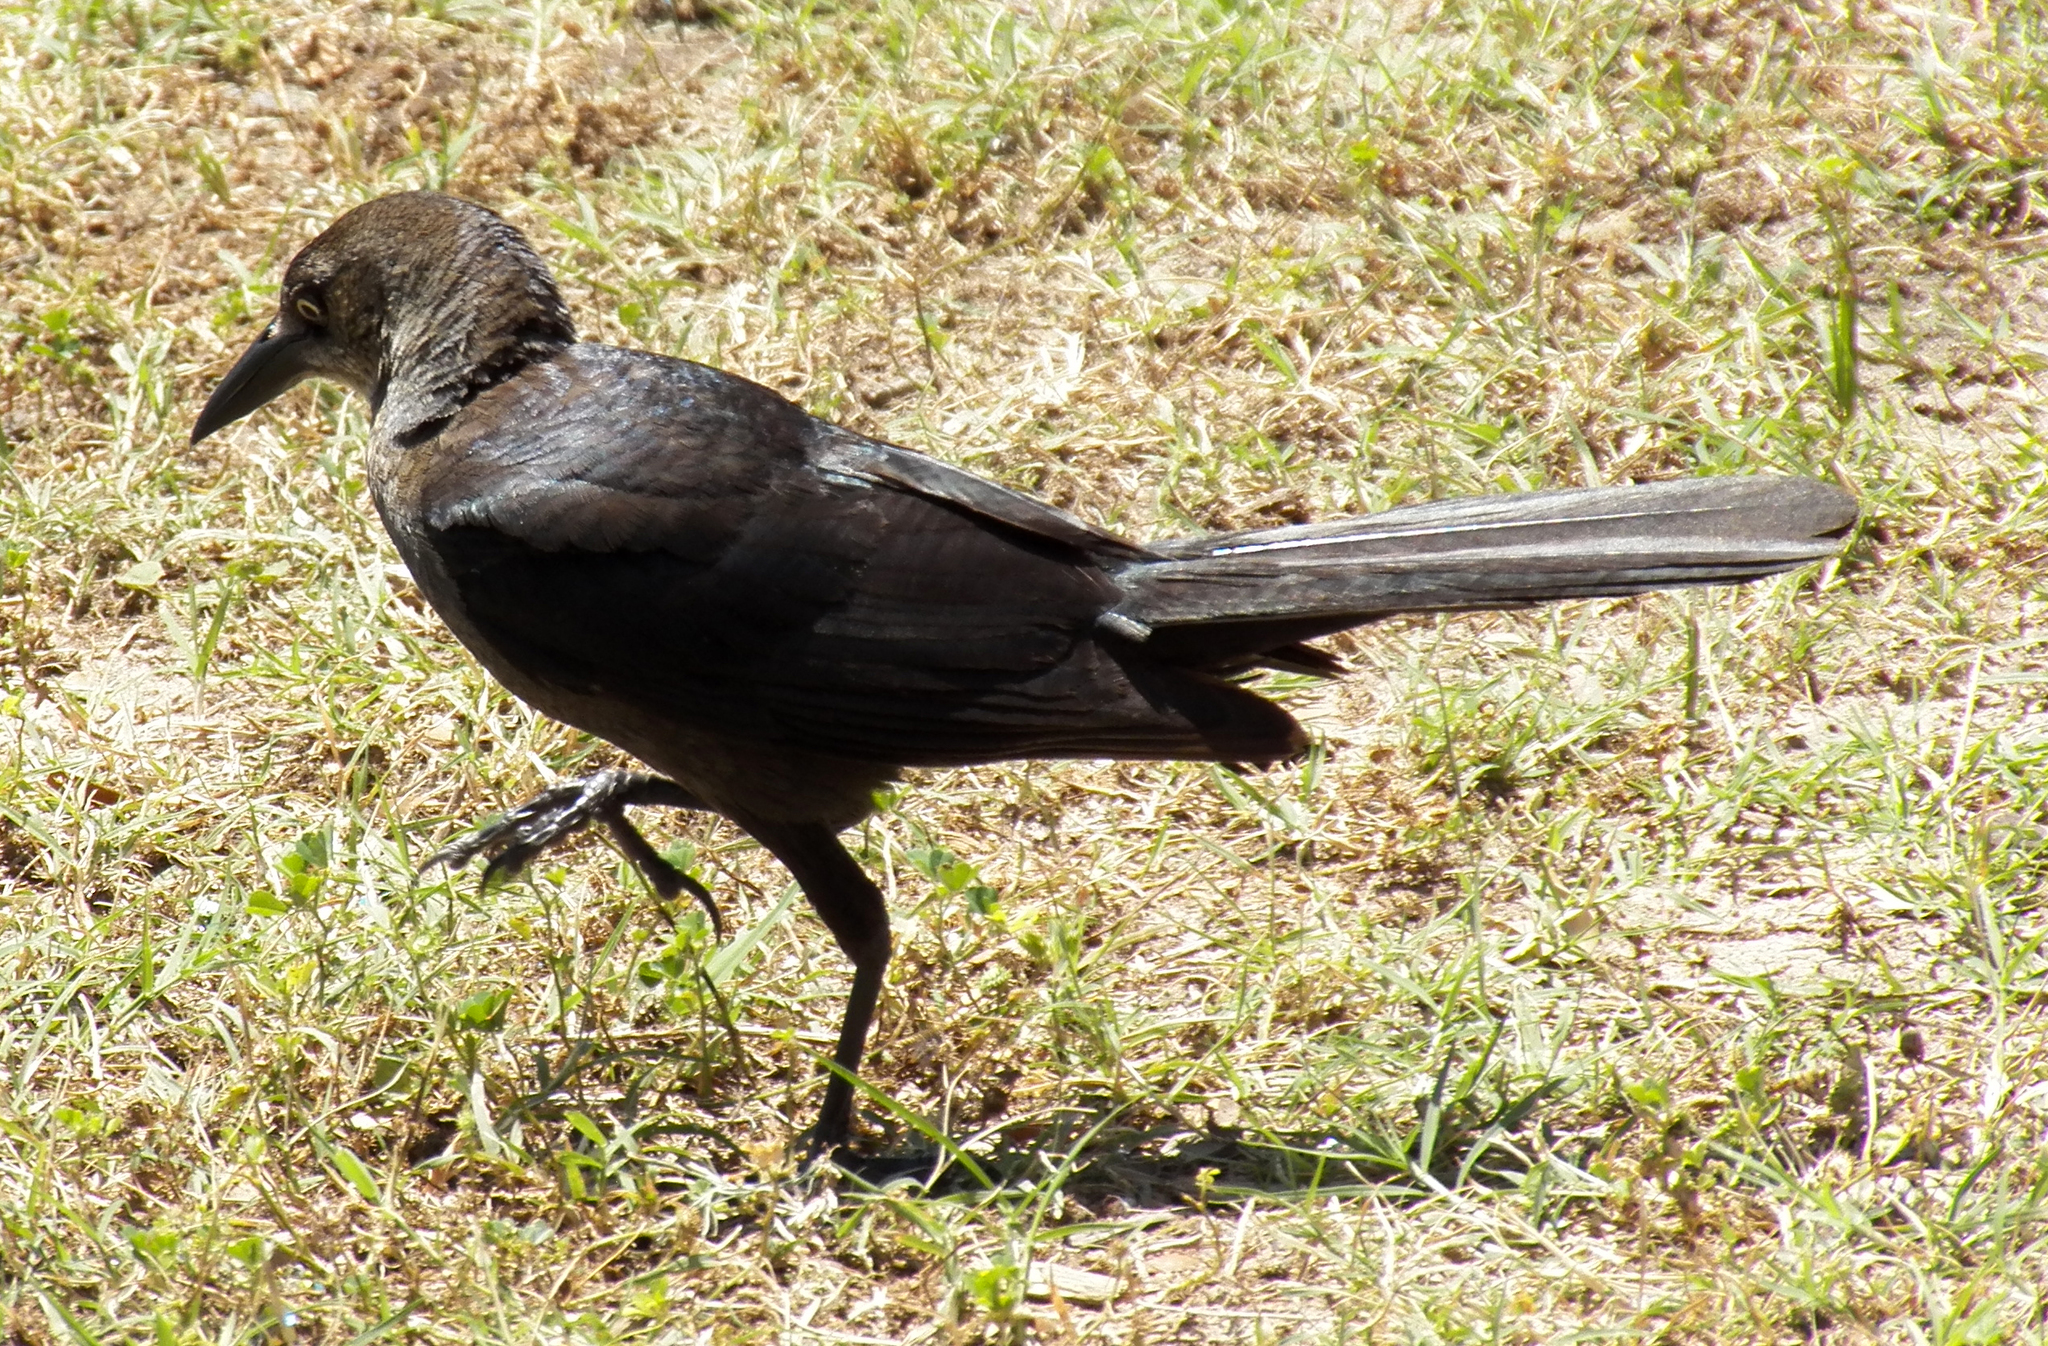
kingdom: Animalia
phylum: Chordata
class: Aves
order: Passeriformes
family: Icteridae
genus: Quiscalus
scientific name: Quiscalus mexicanus
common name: Great-tailed grackle
